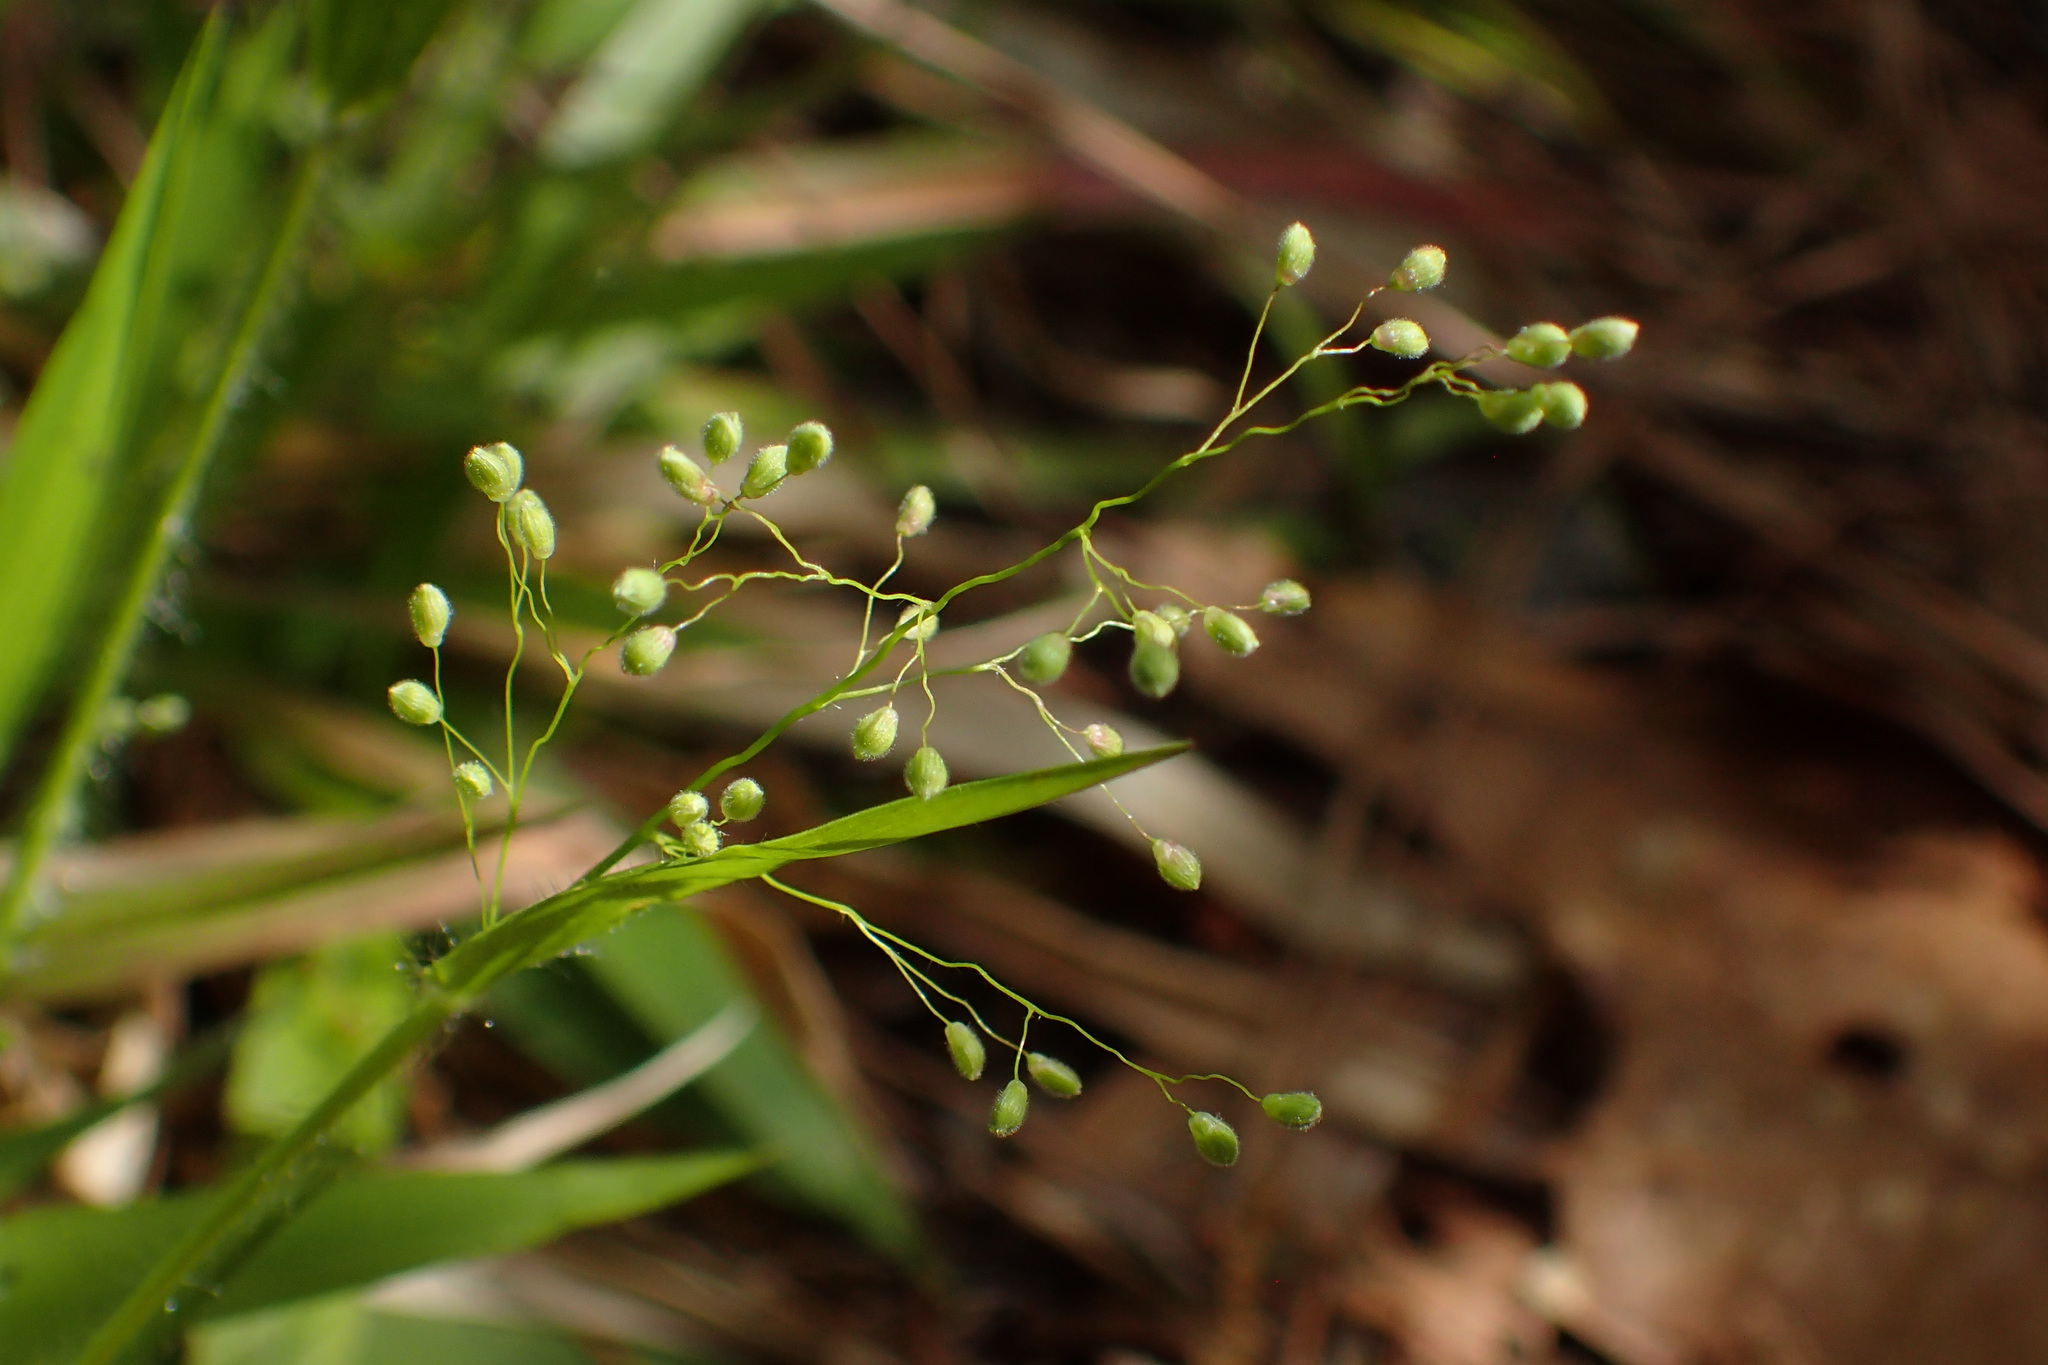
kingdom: Plantae
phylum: Tracheophyta
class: Liliopsida
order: Poales
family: Poaceae
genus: Dichanthelium
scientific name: Dichanthelium laxiflorum
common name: Soft-tuft panic grass
